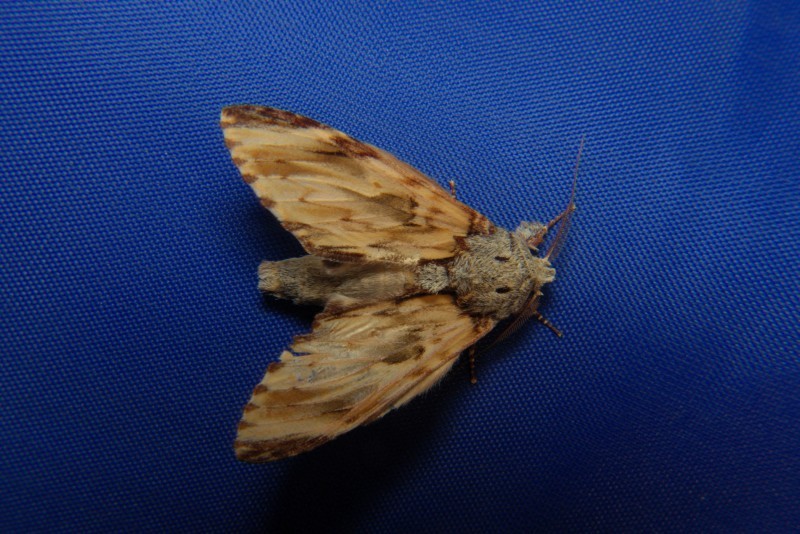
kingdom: Animalia
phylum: Arthropoda
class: Insecta
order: Lepidoptera
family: Notodontidae
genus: Neopheosia
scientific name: Neopheosia fasciata
